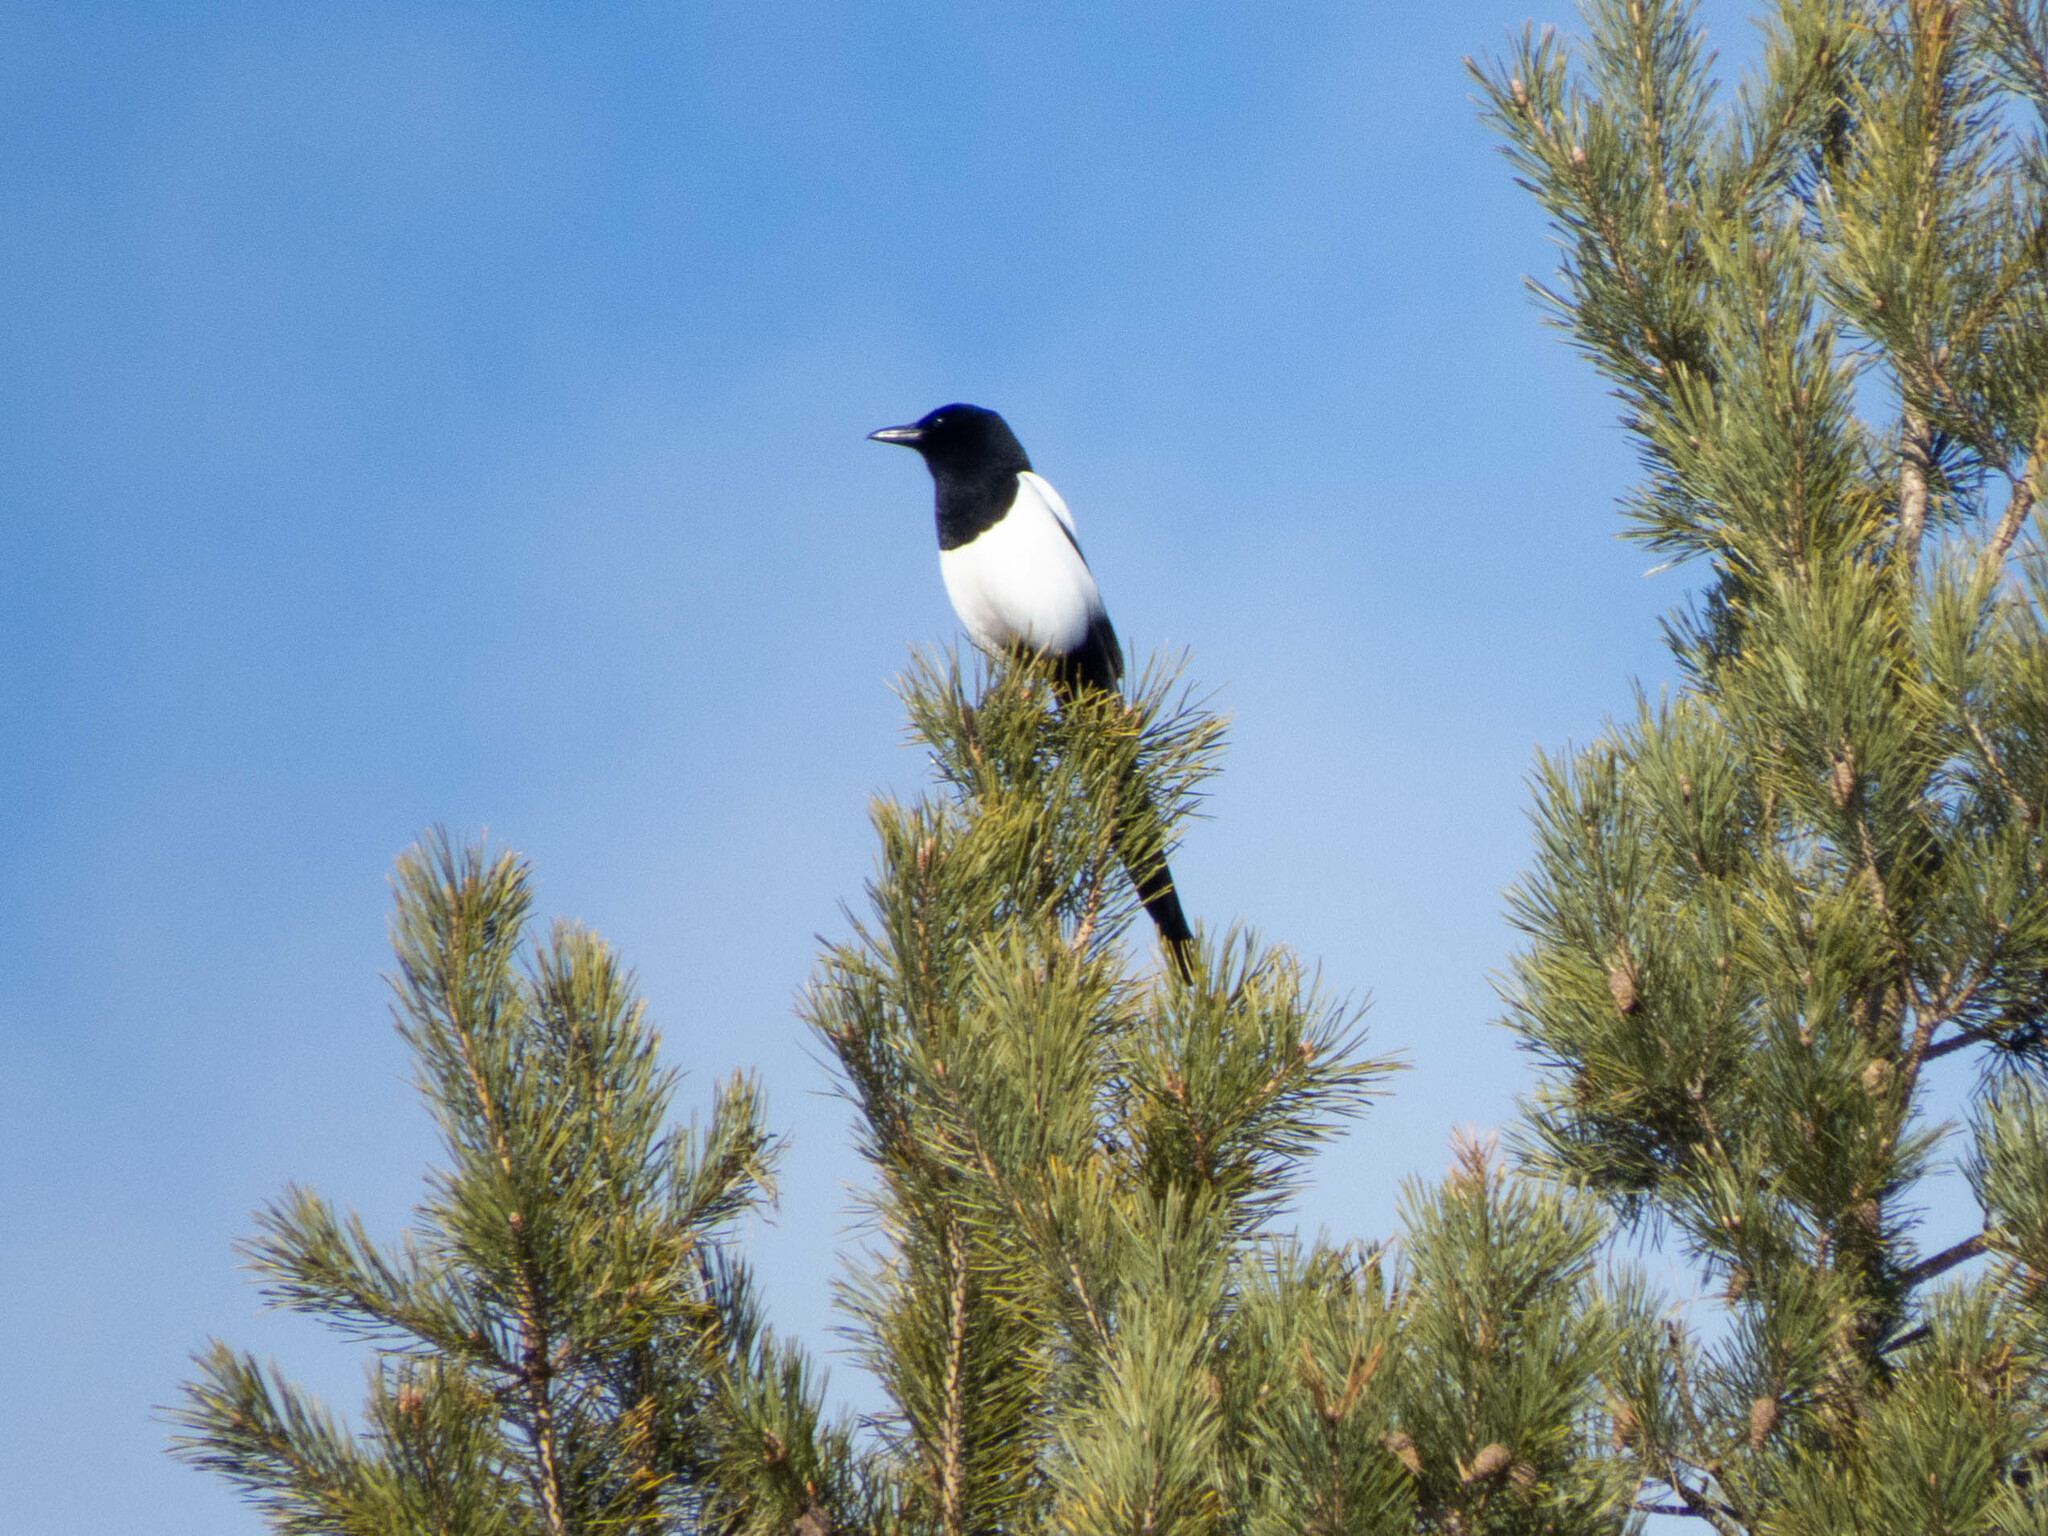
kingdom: Animalia
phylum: Chordata
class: Aves
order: Passeriformes
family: Corvidae
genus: Pica
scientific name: Pica pica
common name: Eurasian magpie
